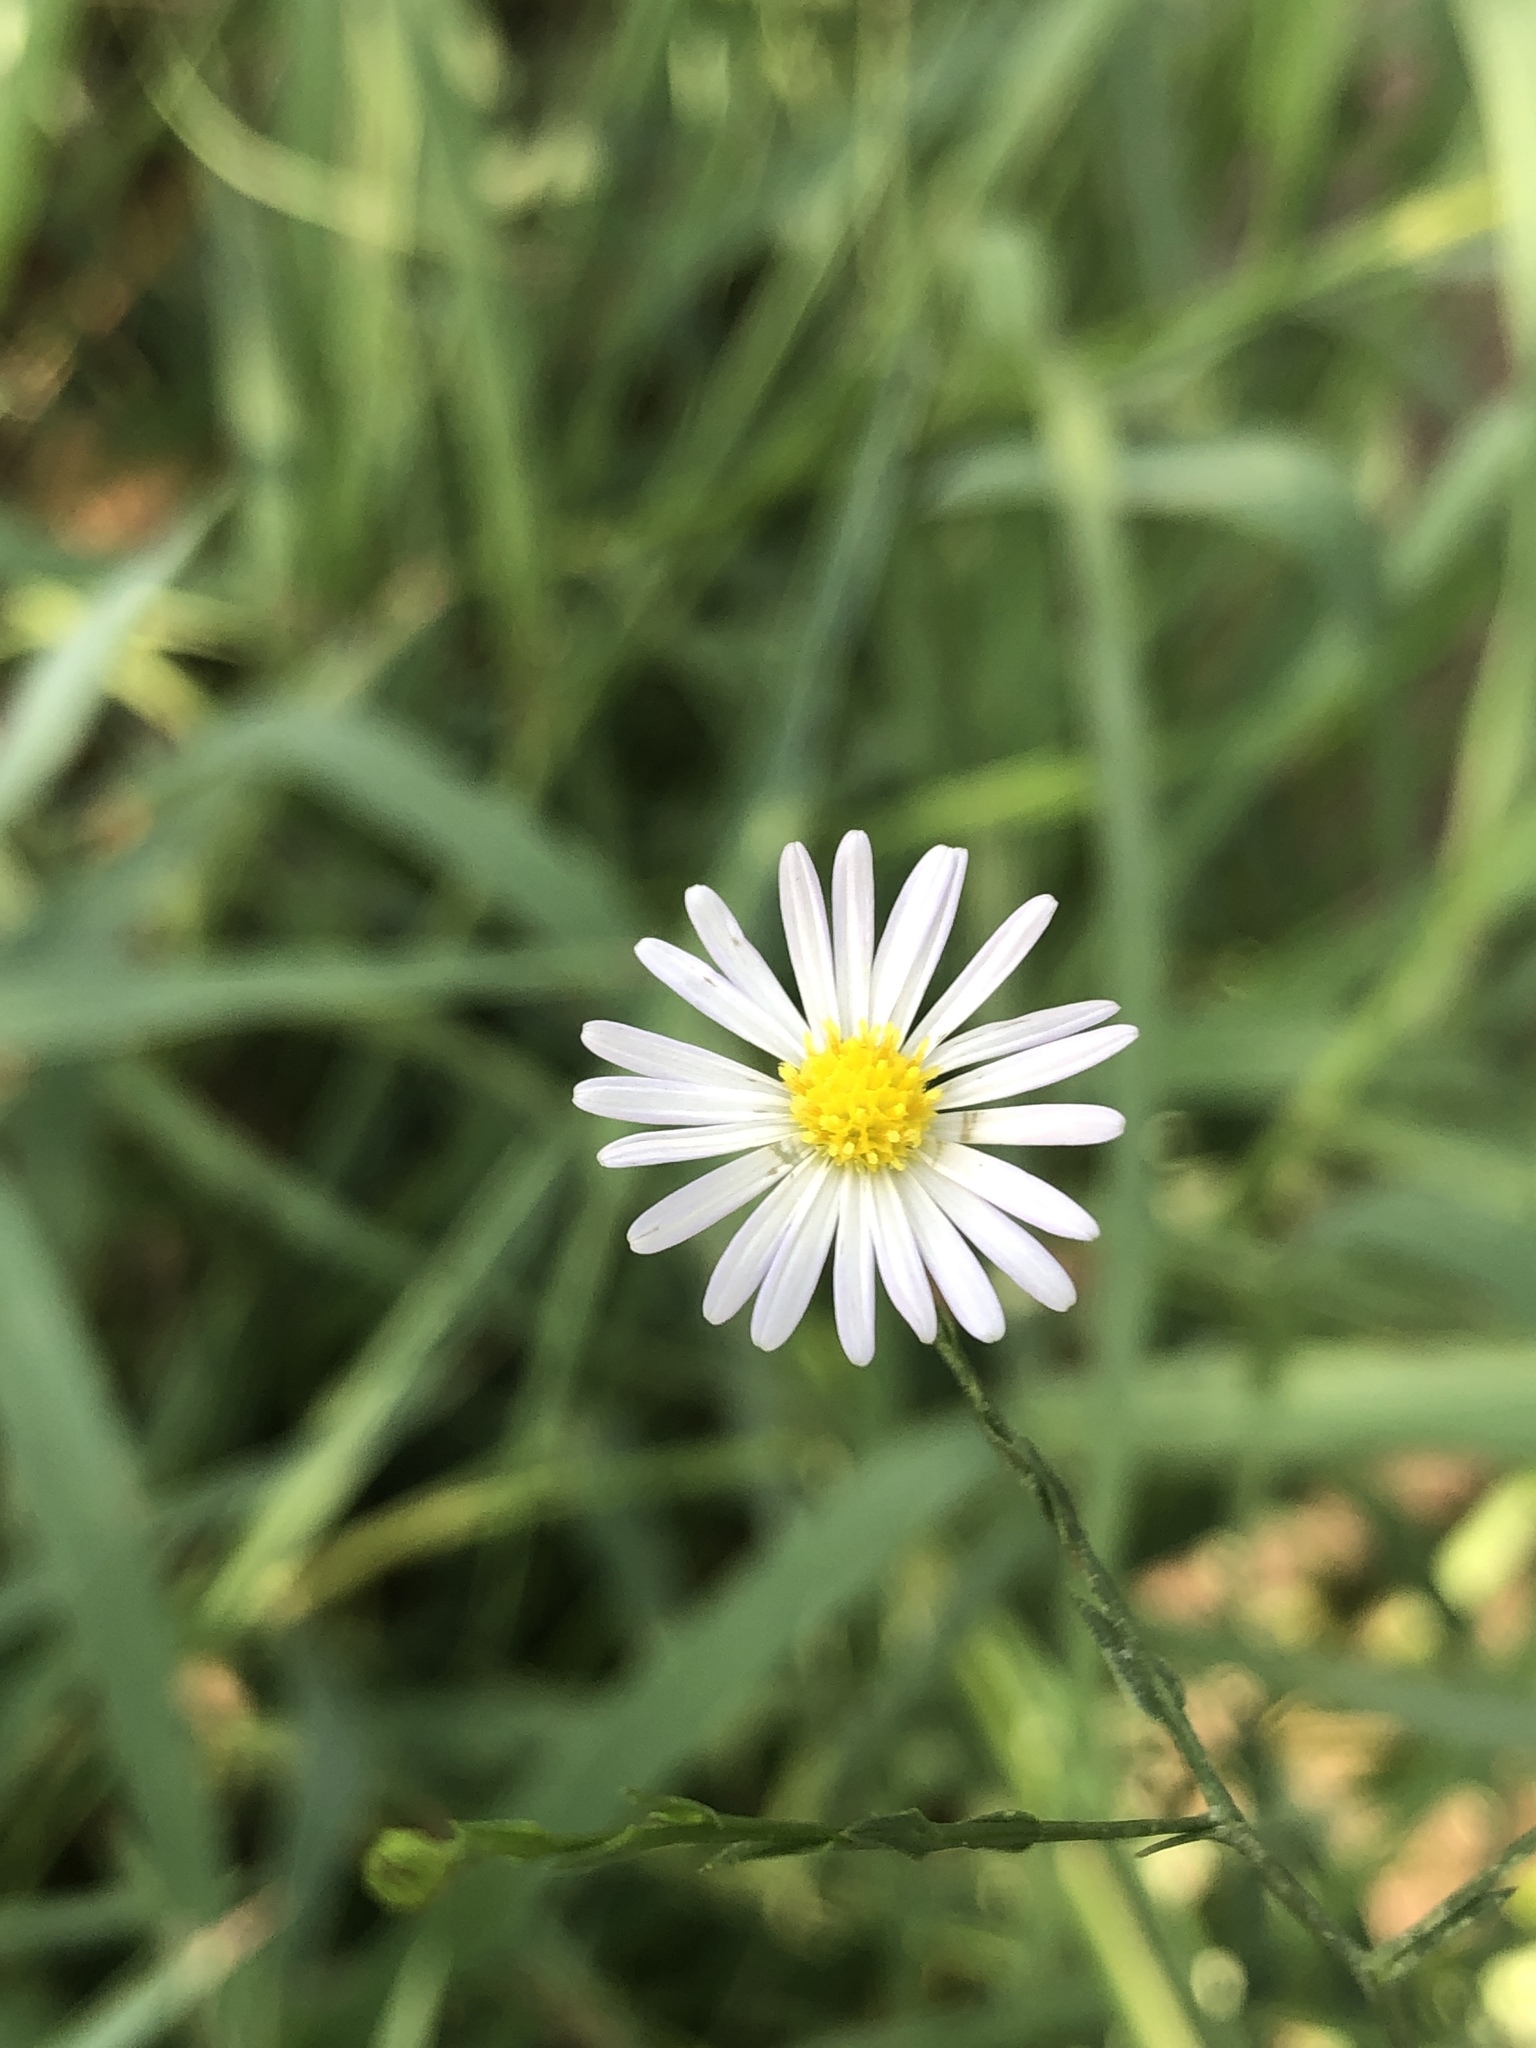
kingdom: Plantae
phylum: Tracheophyta
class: Magnoliopsida
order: Asterales
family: Asteraceae
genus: Symphyotrichum
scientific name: Symphyotrichum divaricatum
